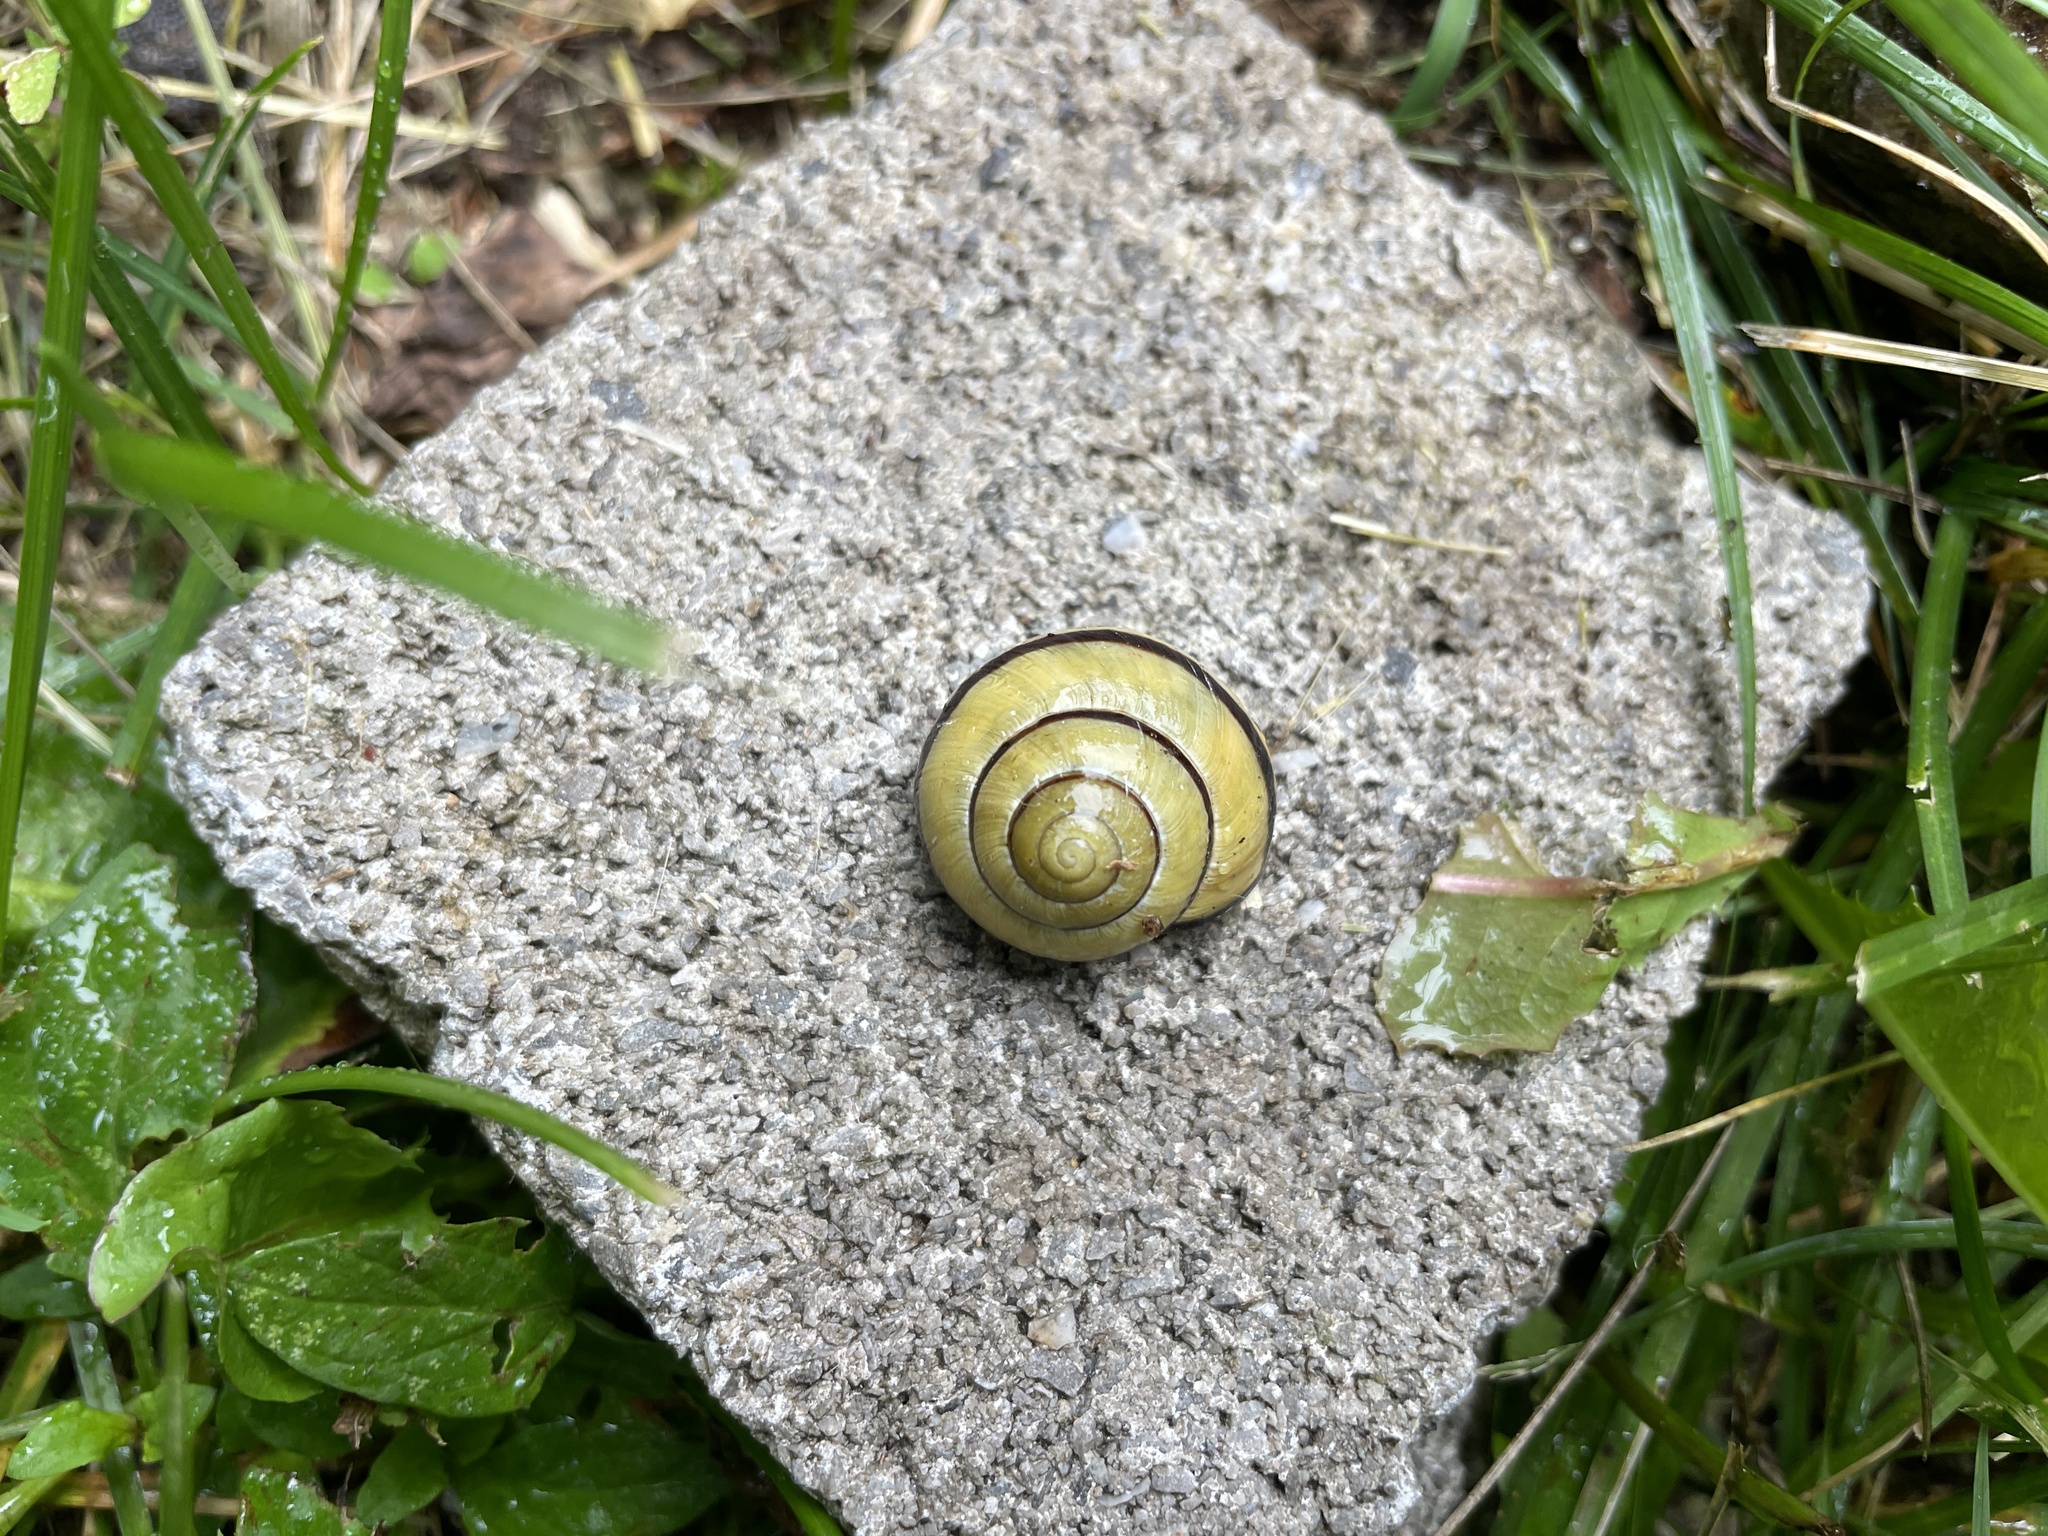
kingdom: Animalia
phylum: Mollusca
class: Gastropoda
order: Stylommatophora
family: Helicidae
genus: Cepaea
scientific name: Cepaea nemoralis
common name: Grovesnail
